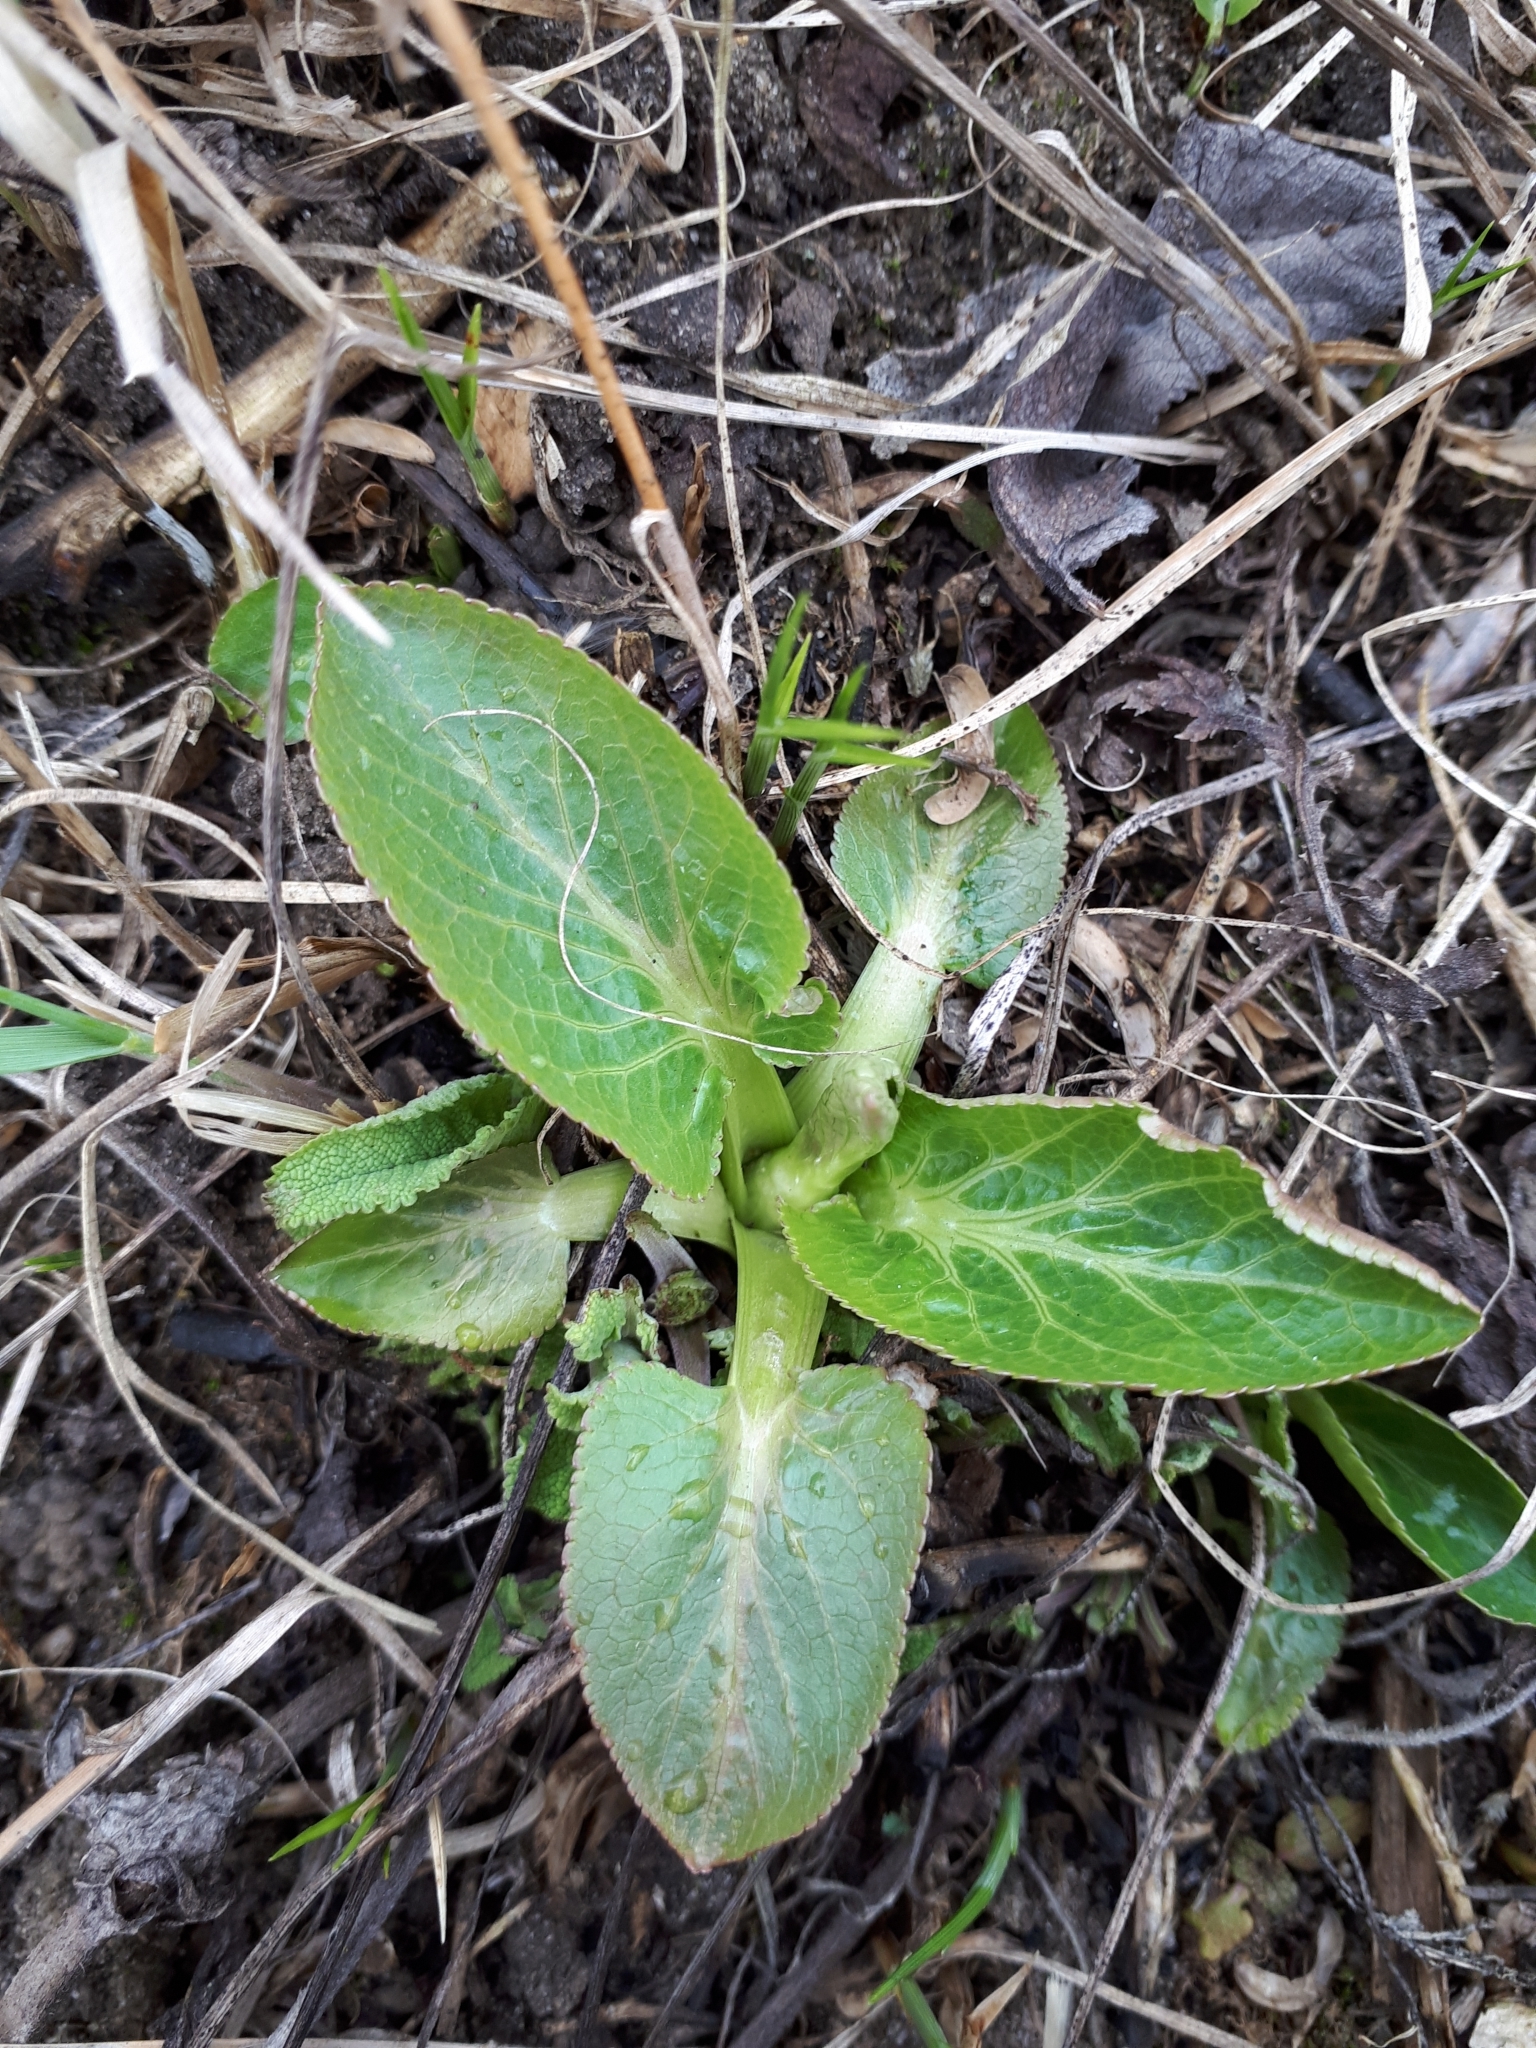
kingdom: Plantae
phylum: Tracheophyta
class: Magnoliopsida
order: Apiales
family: Apiaceae
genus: Eryngium
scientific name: Eryngium planum
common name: Blue eryngo
